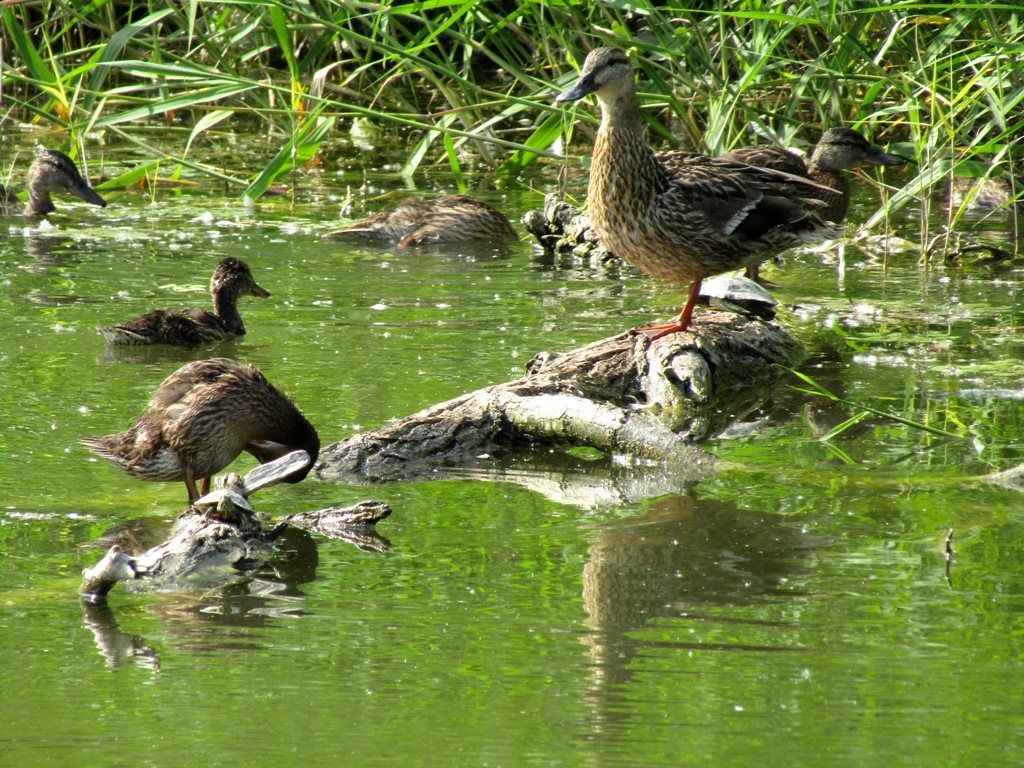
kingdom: Animalia
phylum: Chordata
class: Aves
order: Anseriformes
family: Anatidae
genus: Anas
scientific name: Anas platyrhynchos
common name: Mallard
